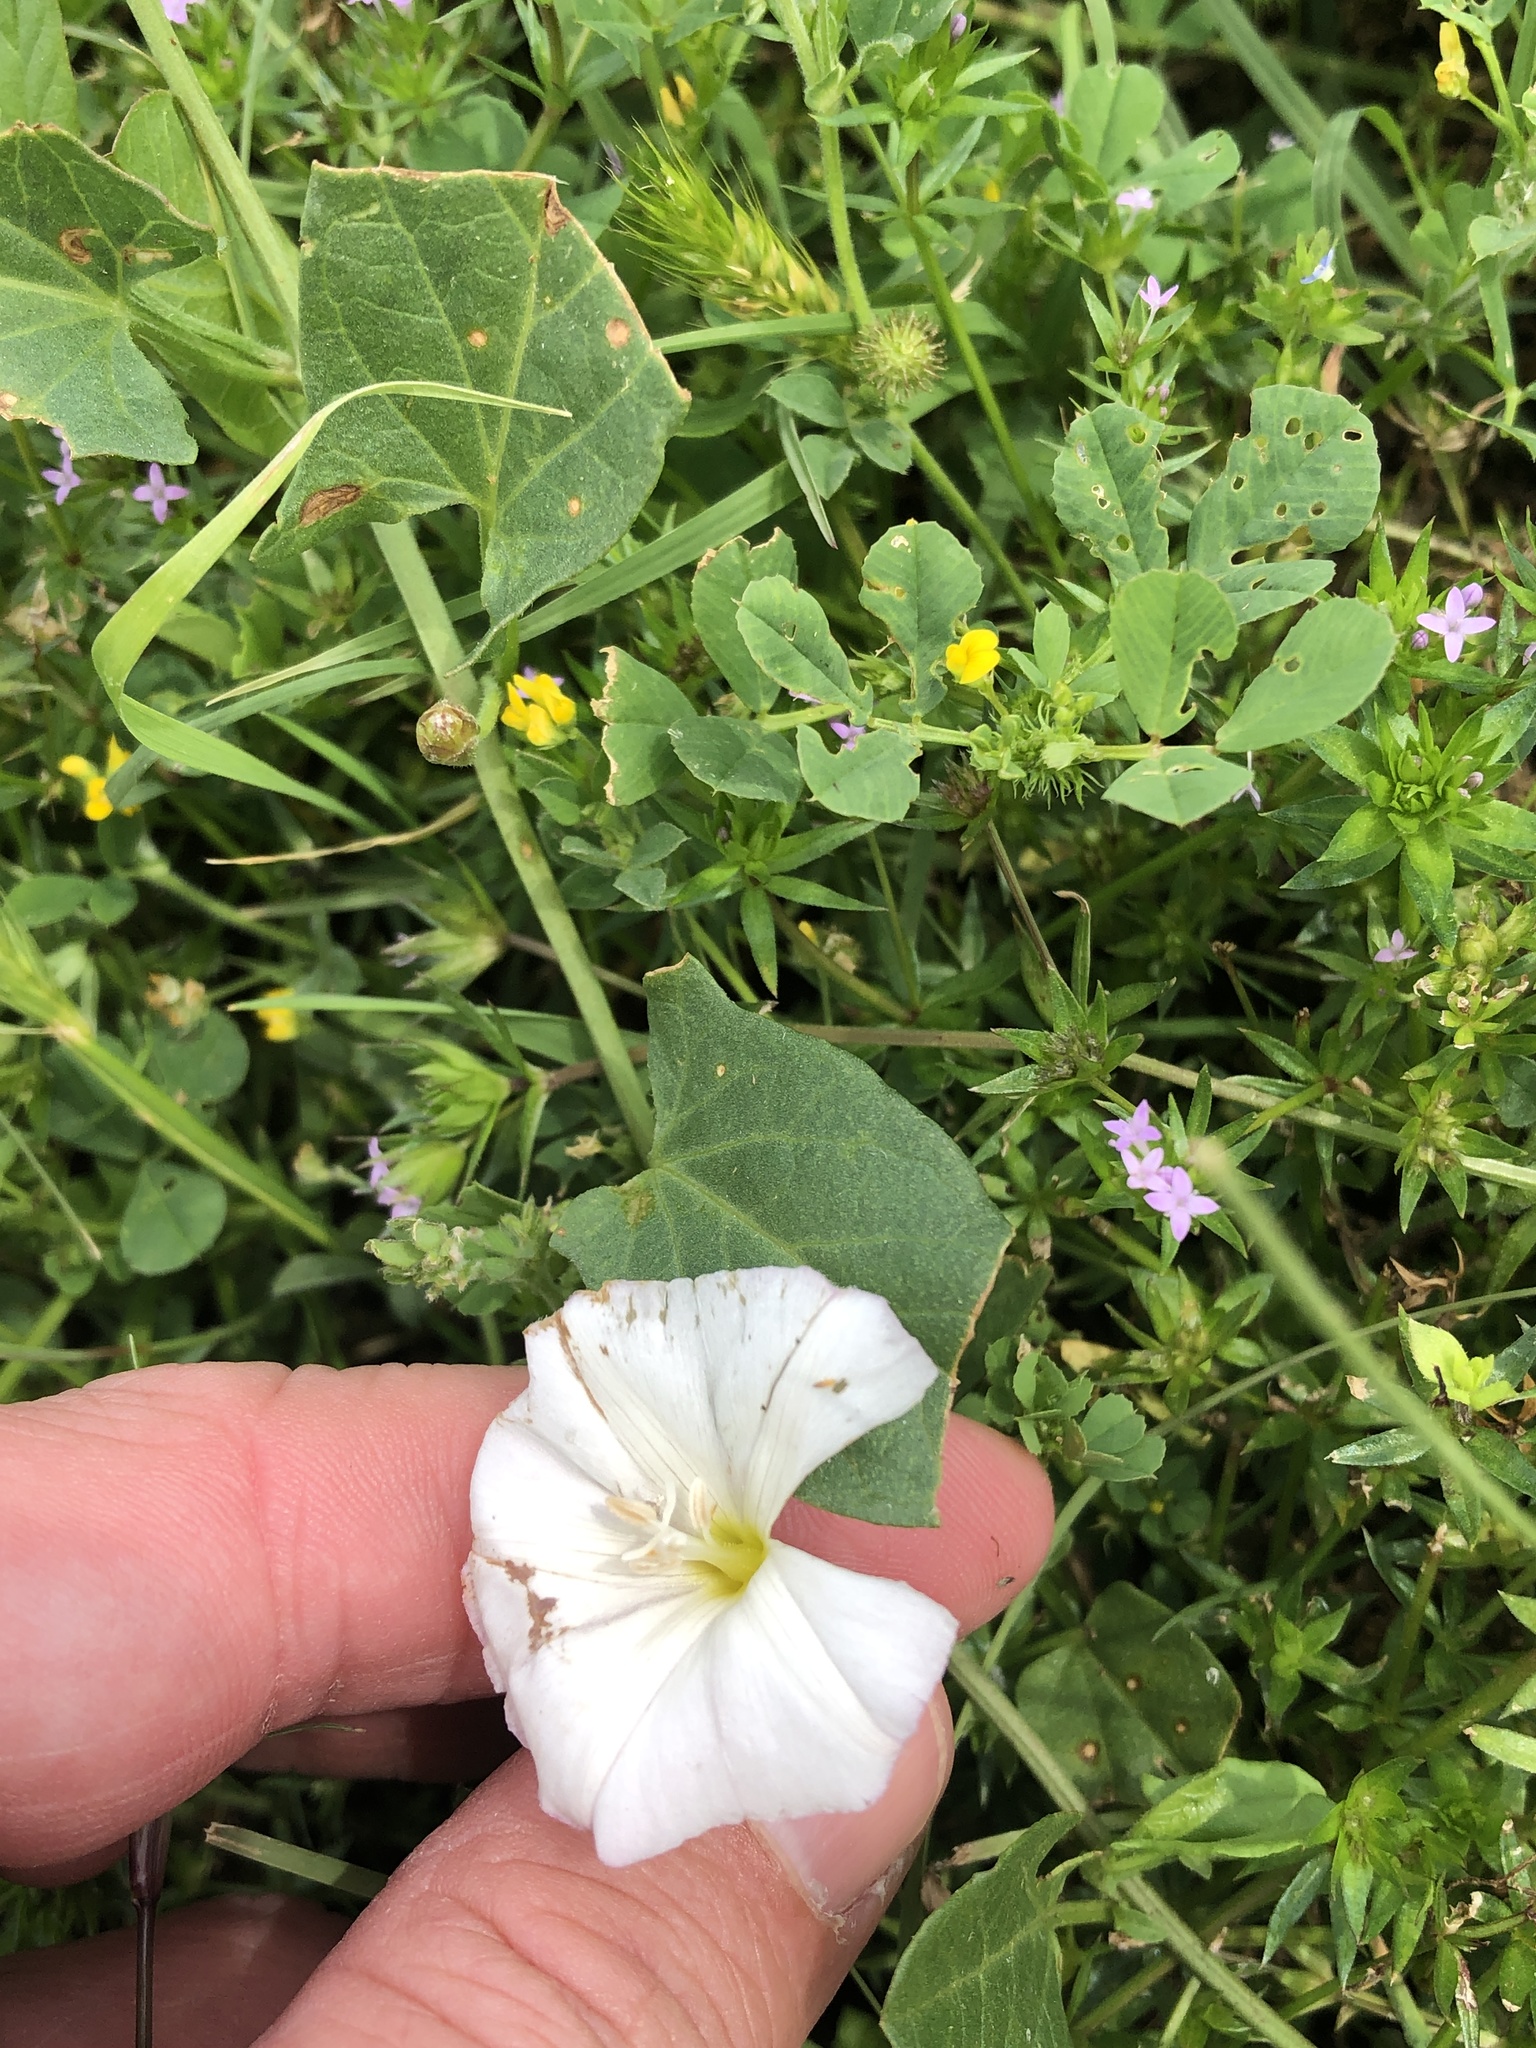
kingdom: Plantae
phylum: Tracheophyta
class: Magnoliopsida
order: Solanales
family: Convolvulaceae
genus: Convolvulus
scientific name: Convolvulus arvensis
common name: Field bindweed
